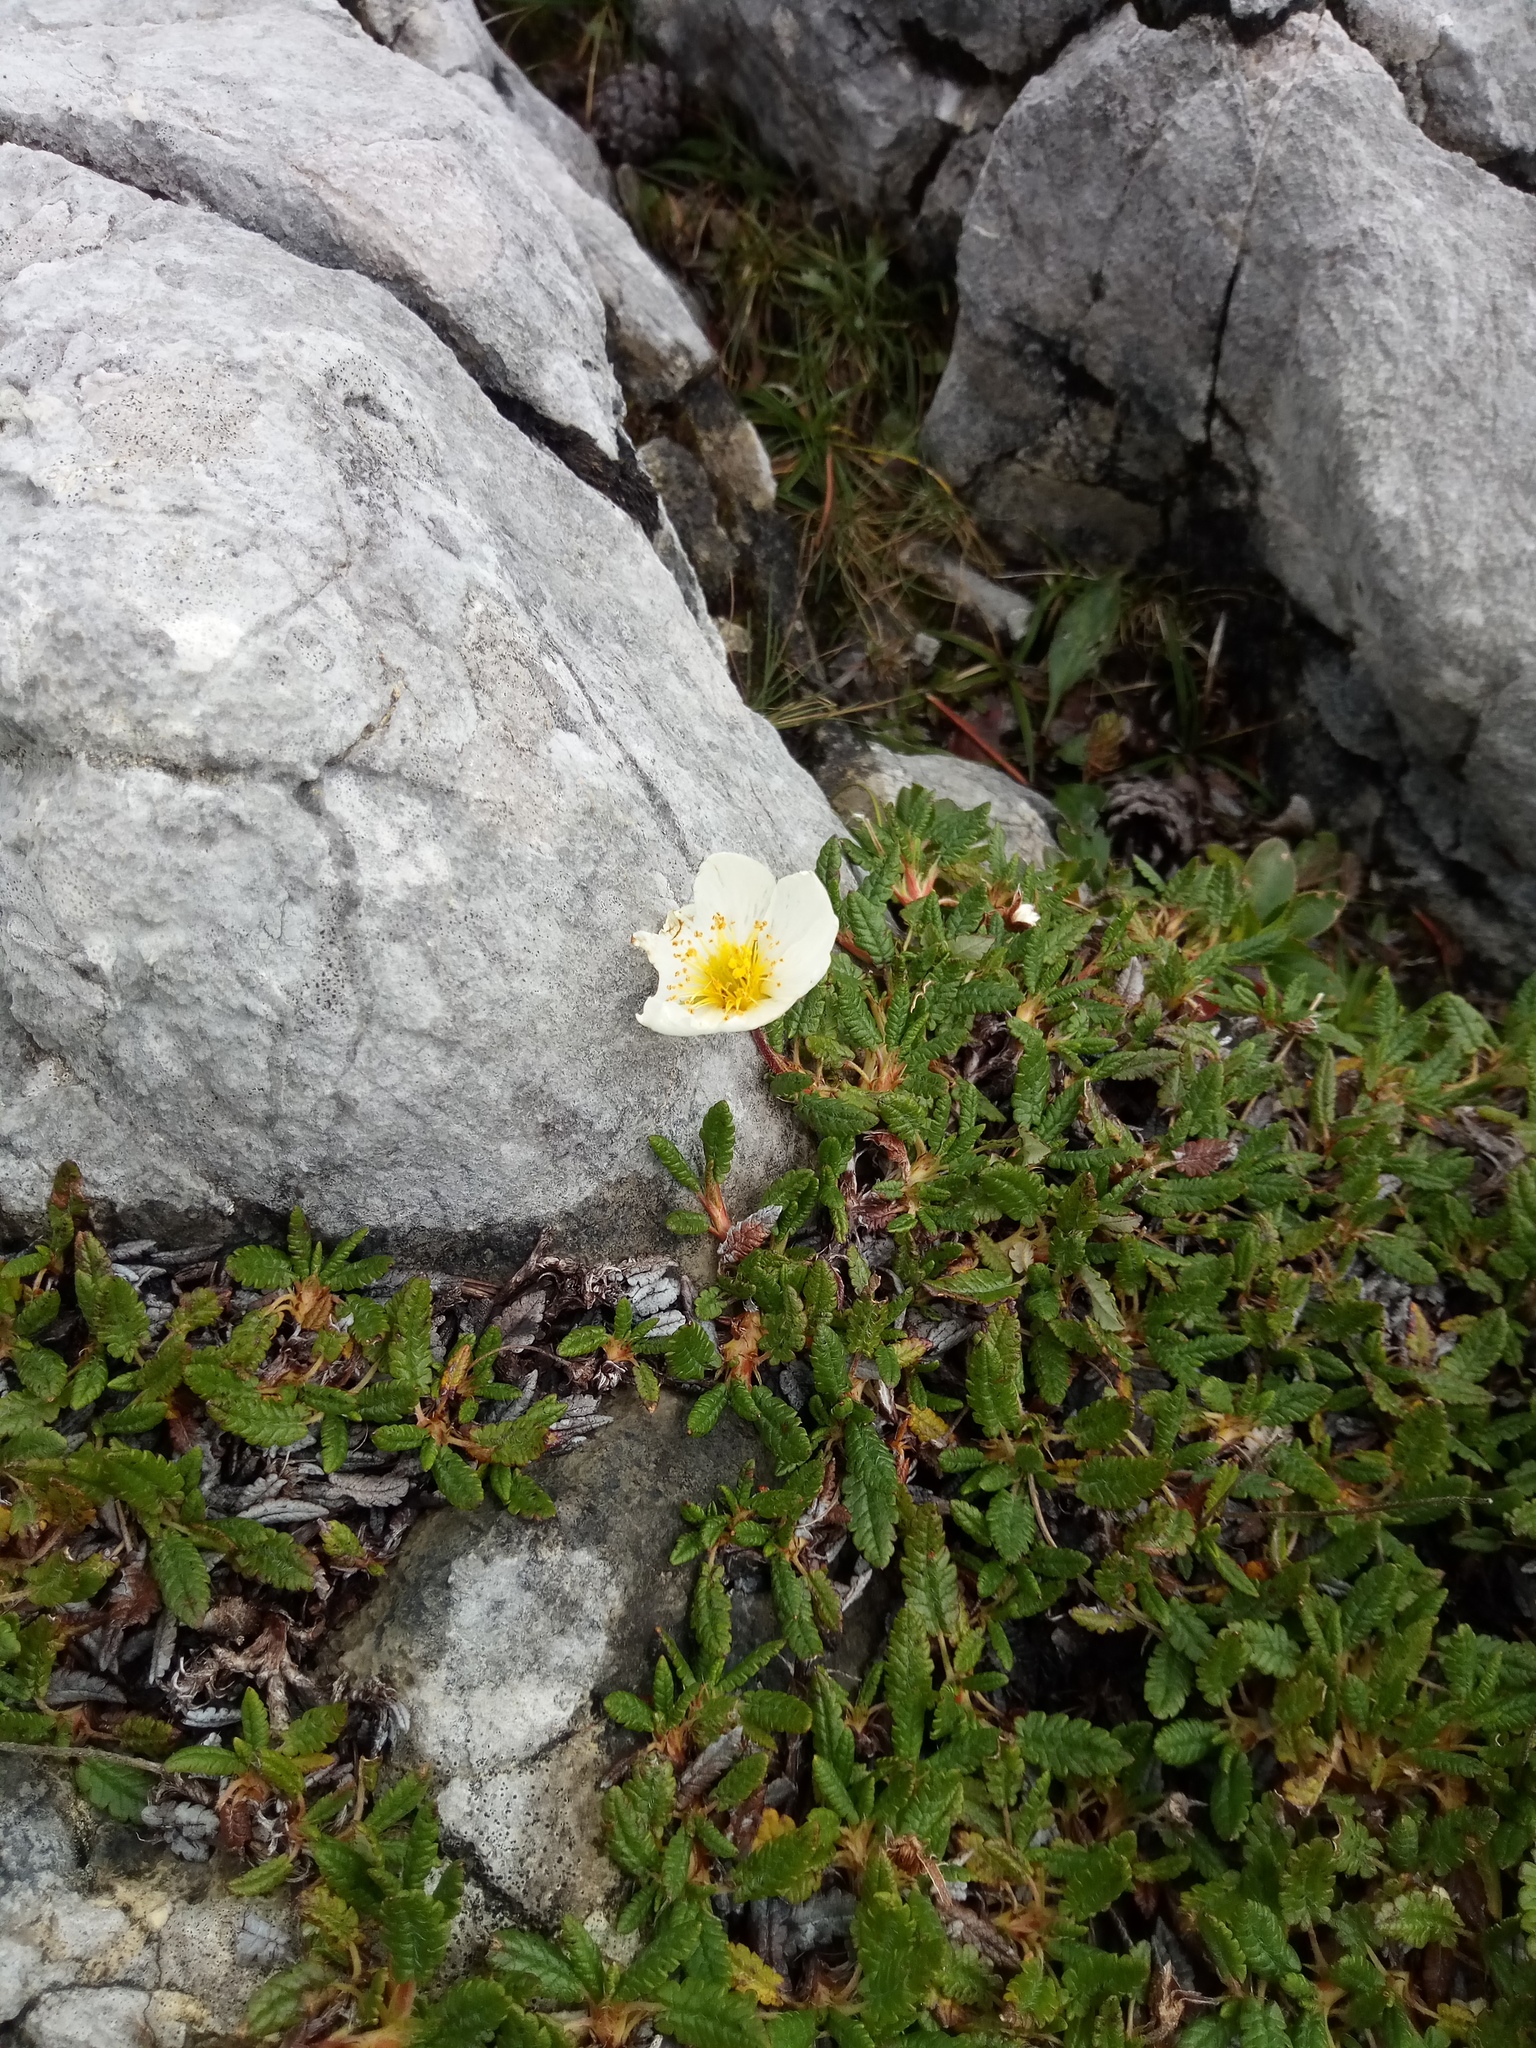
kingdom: Plantae
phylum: Tracheophyta
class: Magnoliopsida
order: Rosales
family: Rosaceae
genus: Dryas
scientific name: Dryas octopetala
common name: Eight-petal mountain-avens
